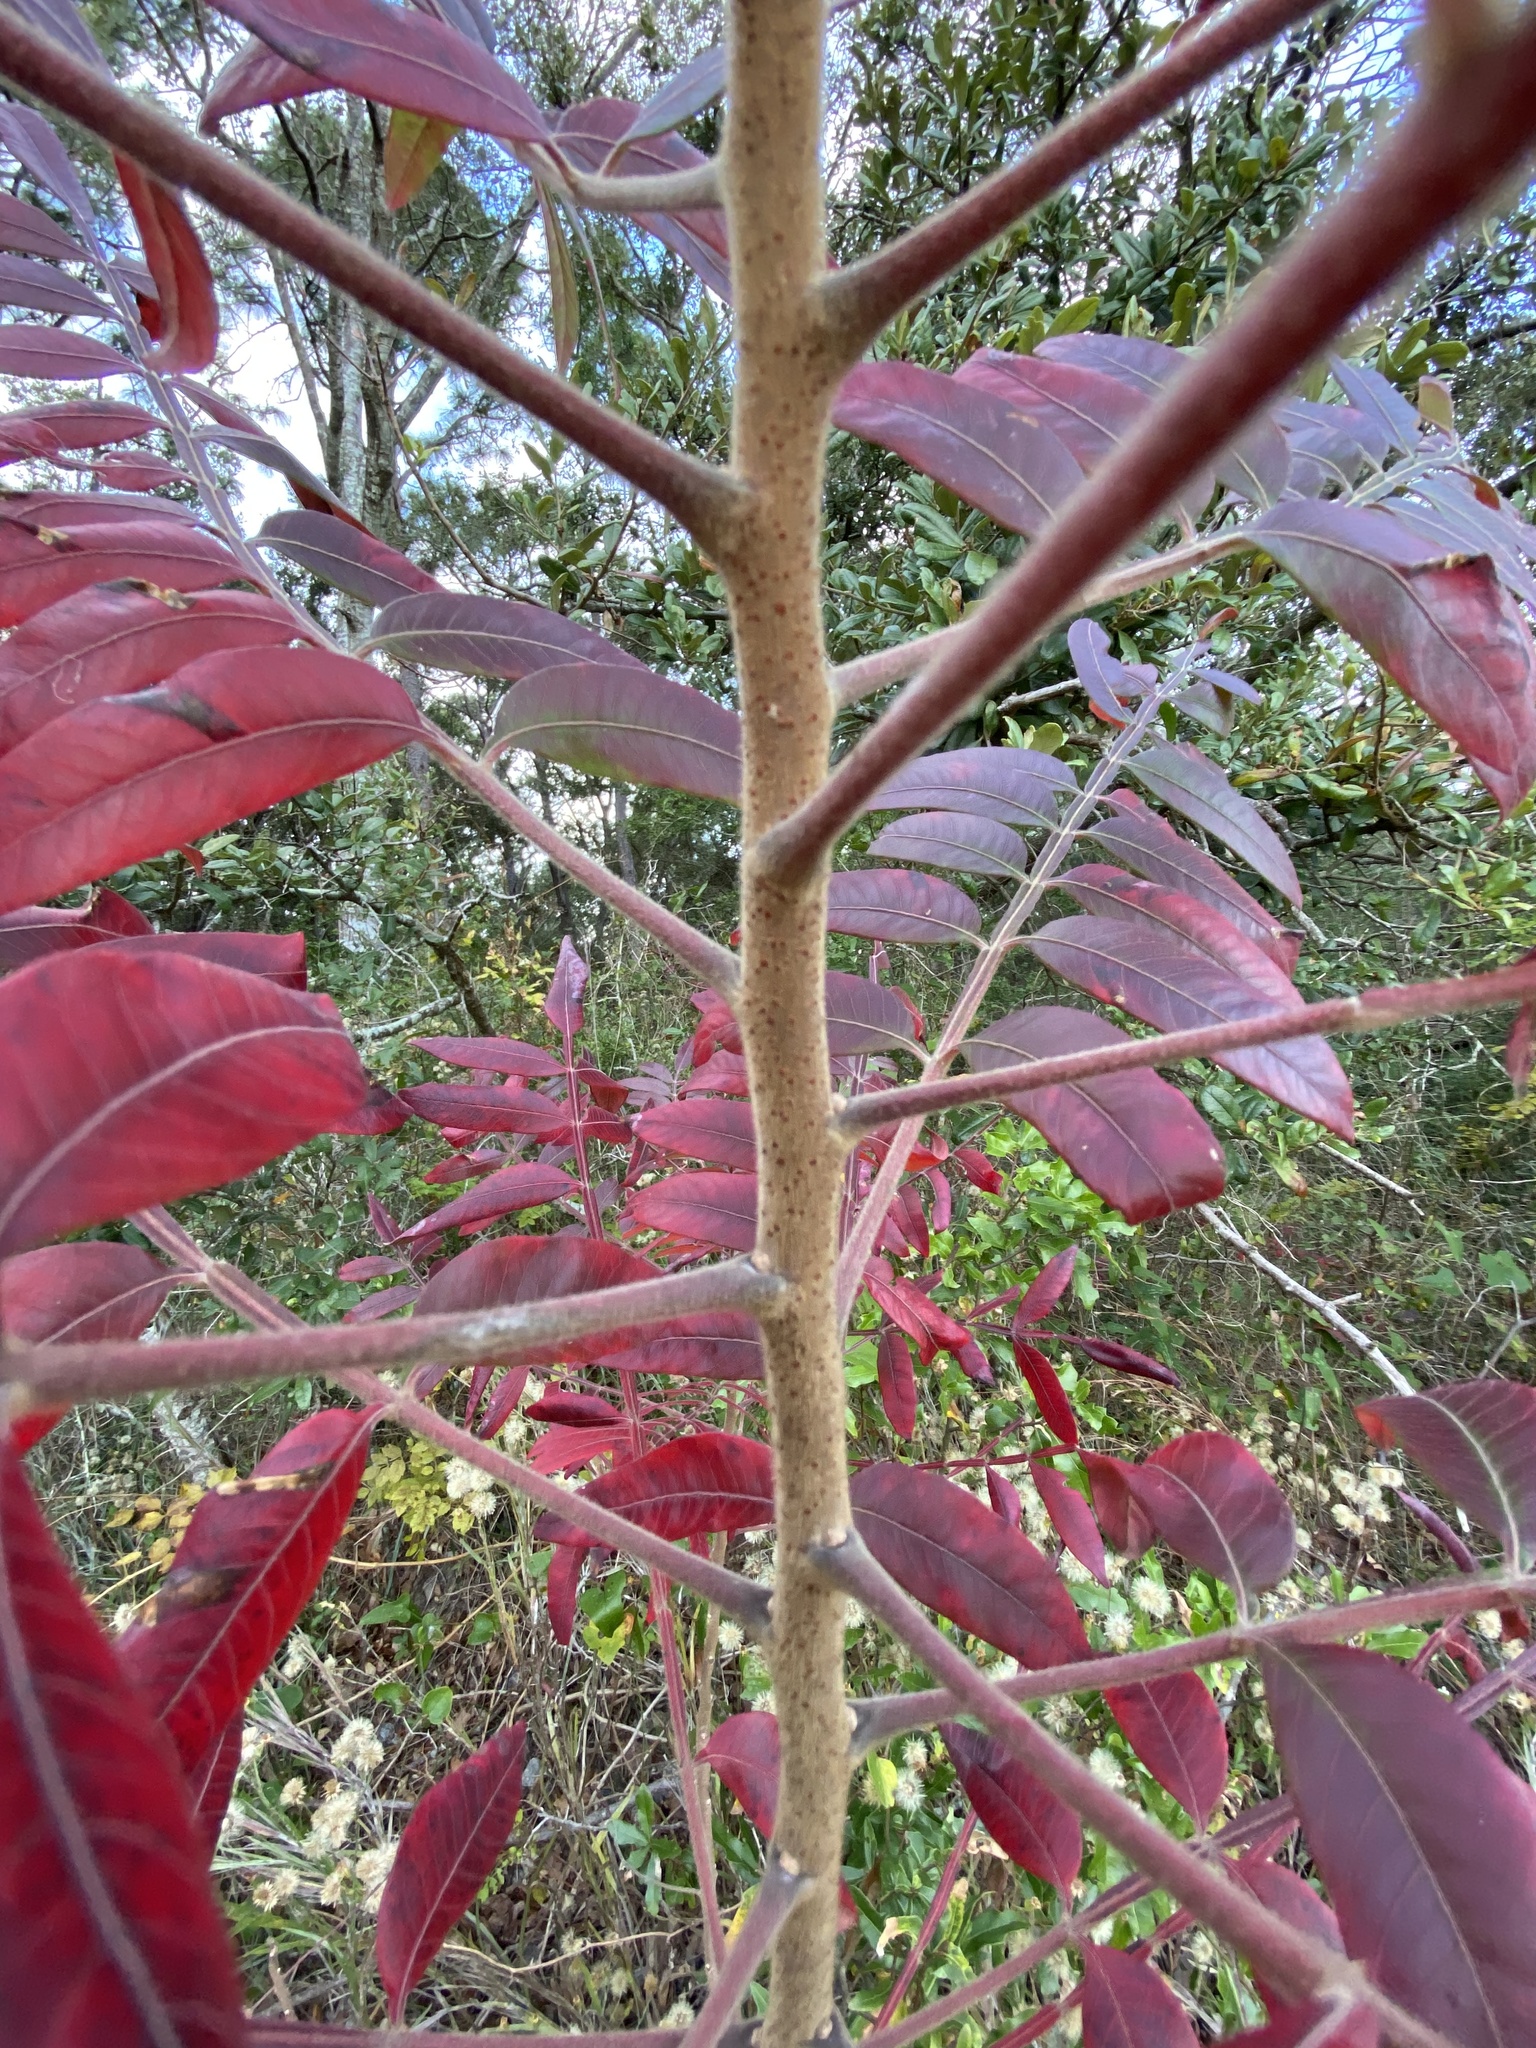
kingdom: Plantae
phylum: Tracheophyta
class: Magnoliopsida
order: Sapindales
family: Anacardiaceae
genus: Rhus
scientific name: Rhus copallina
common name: Shining sumac
